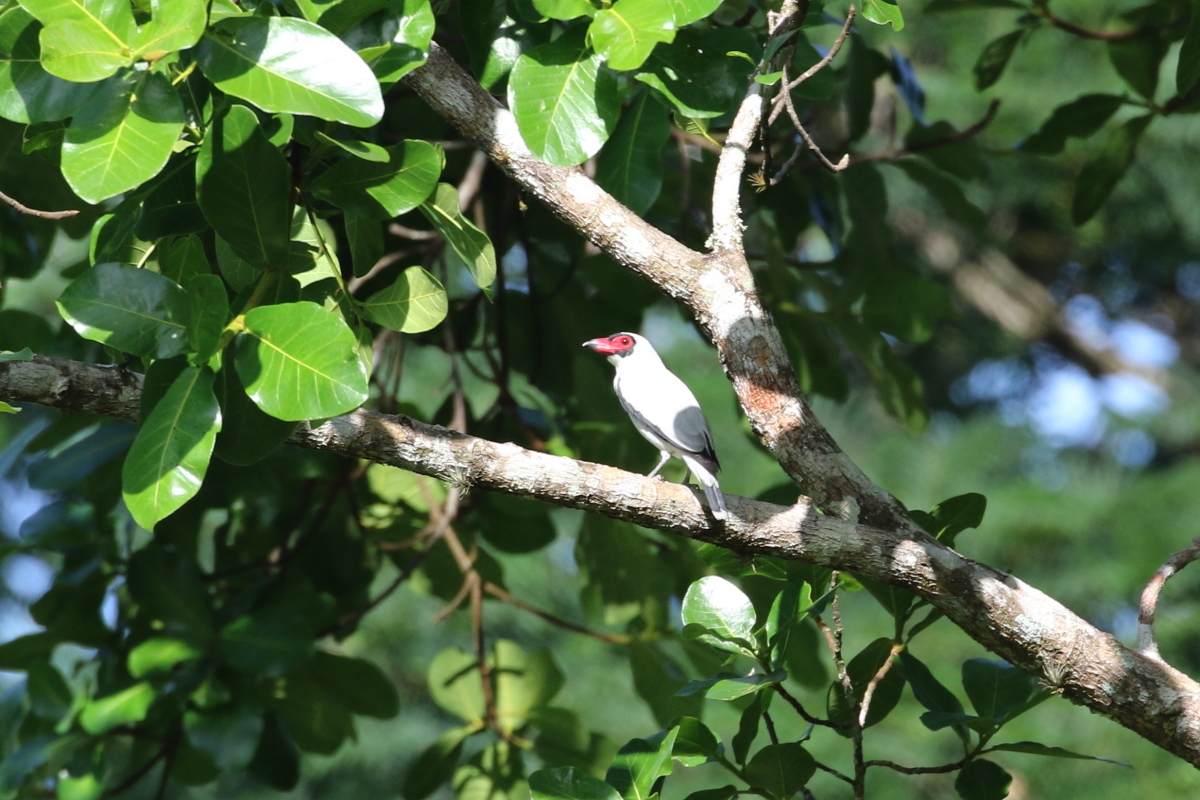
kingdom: Animalia
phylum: Chordata
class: Aves
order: Passeriformes
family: Cotingidae
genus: Tityra
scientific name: Tityra semifasciata
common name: Masked tityra
